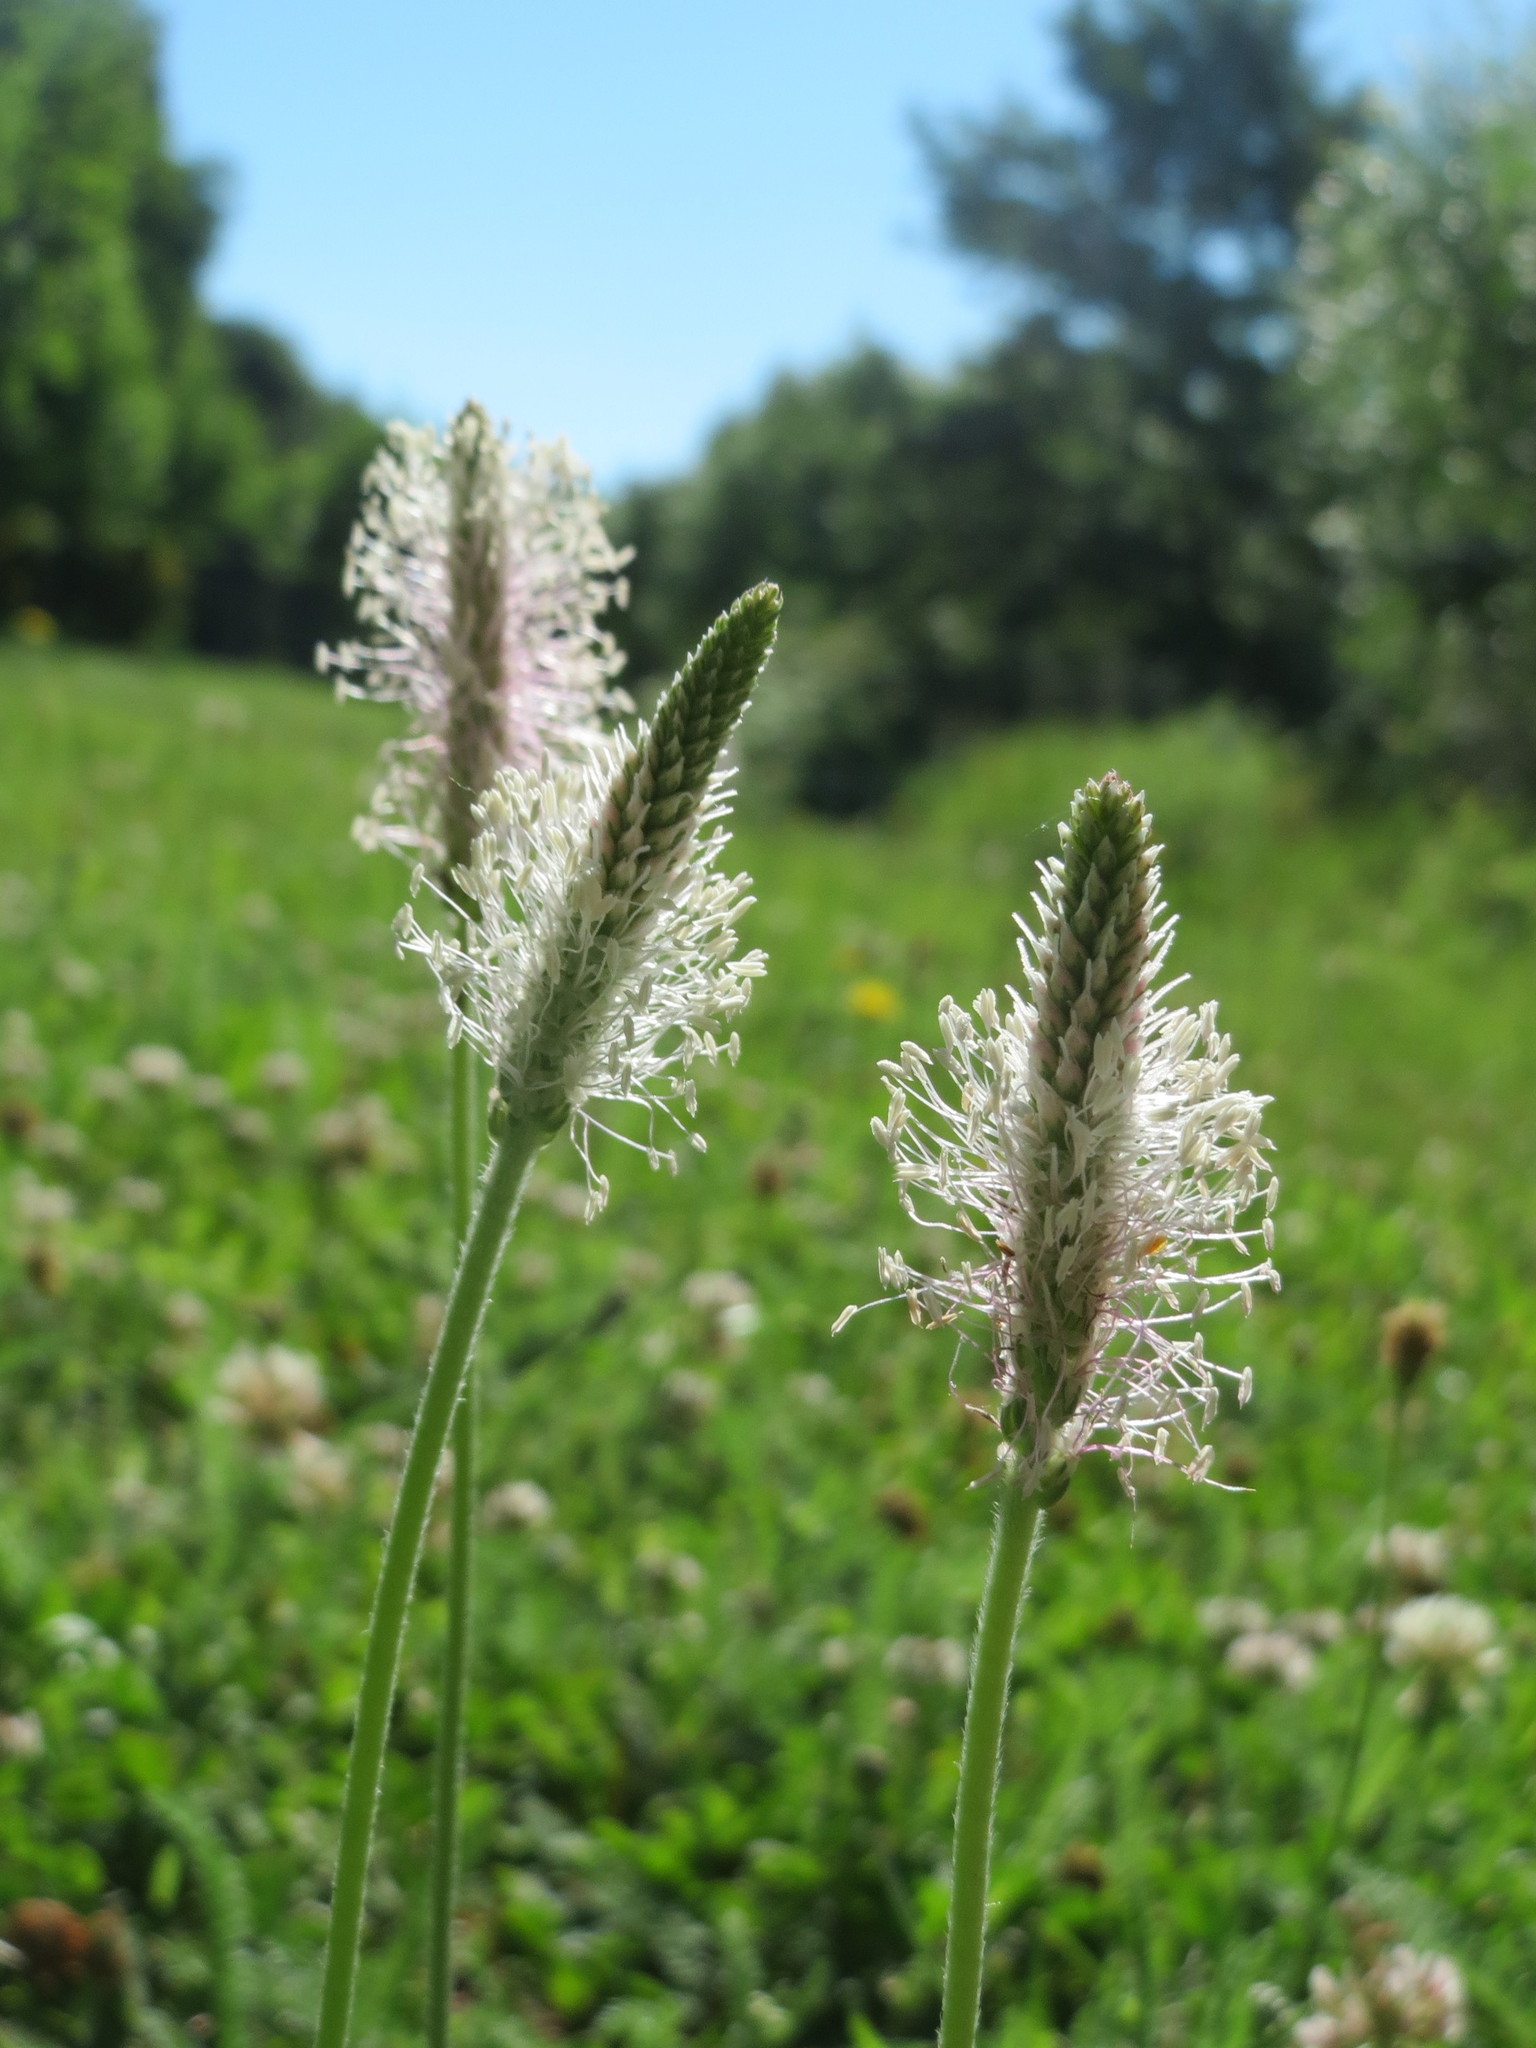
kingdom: Plantae
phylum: Tracheophyta
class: Magnoliopsida
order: Lamiales
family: Plantaginaceae
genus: Plantago
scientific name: Plantago media
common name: Hoary plantain
